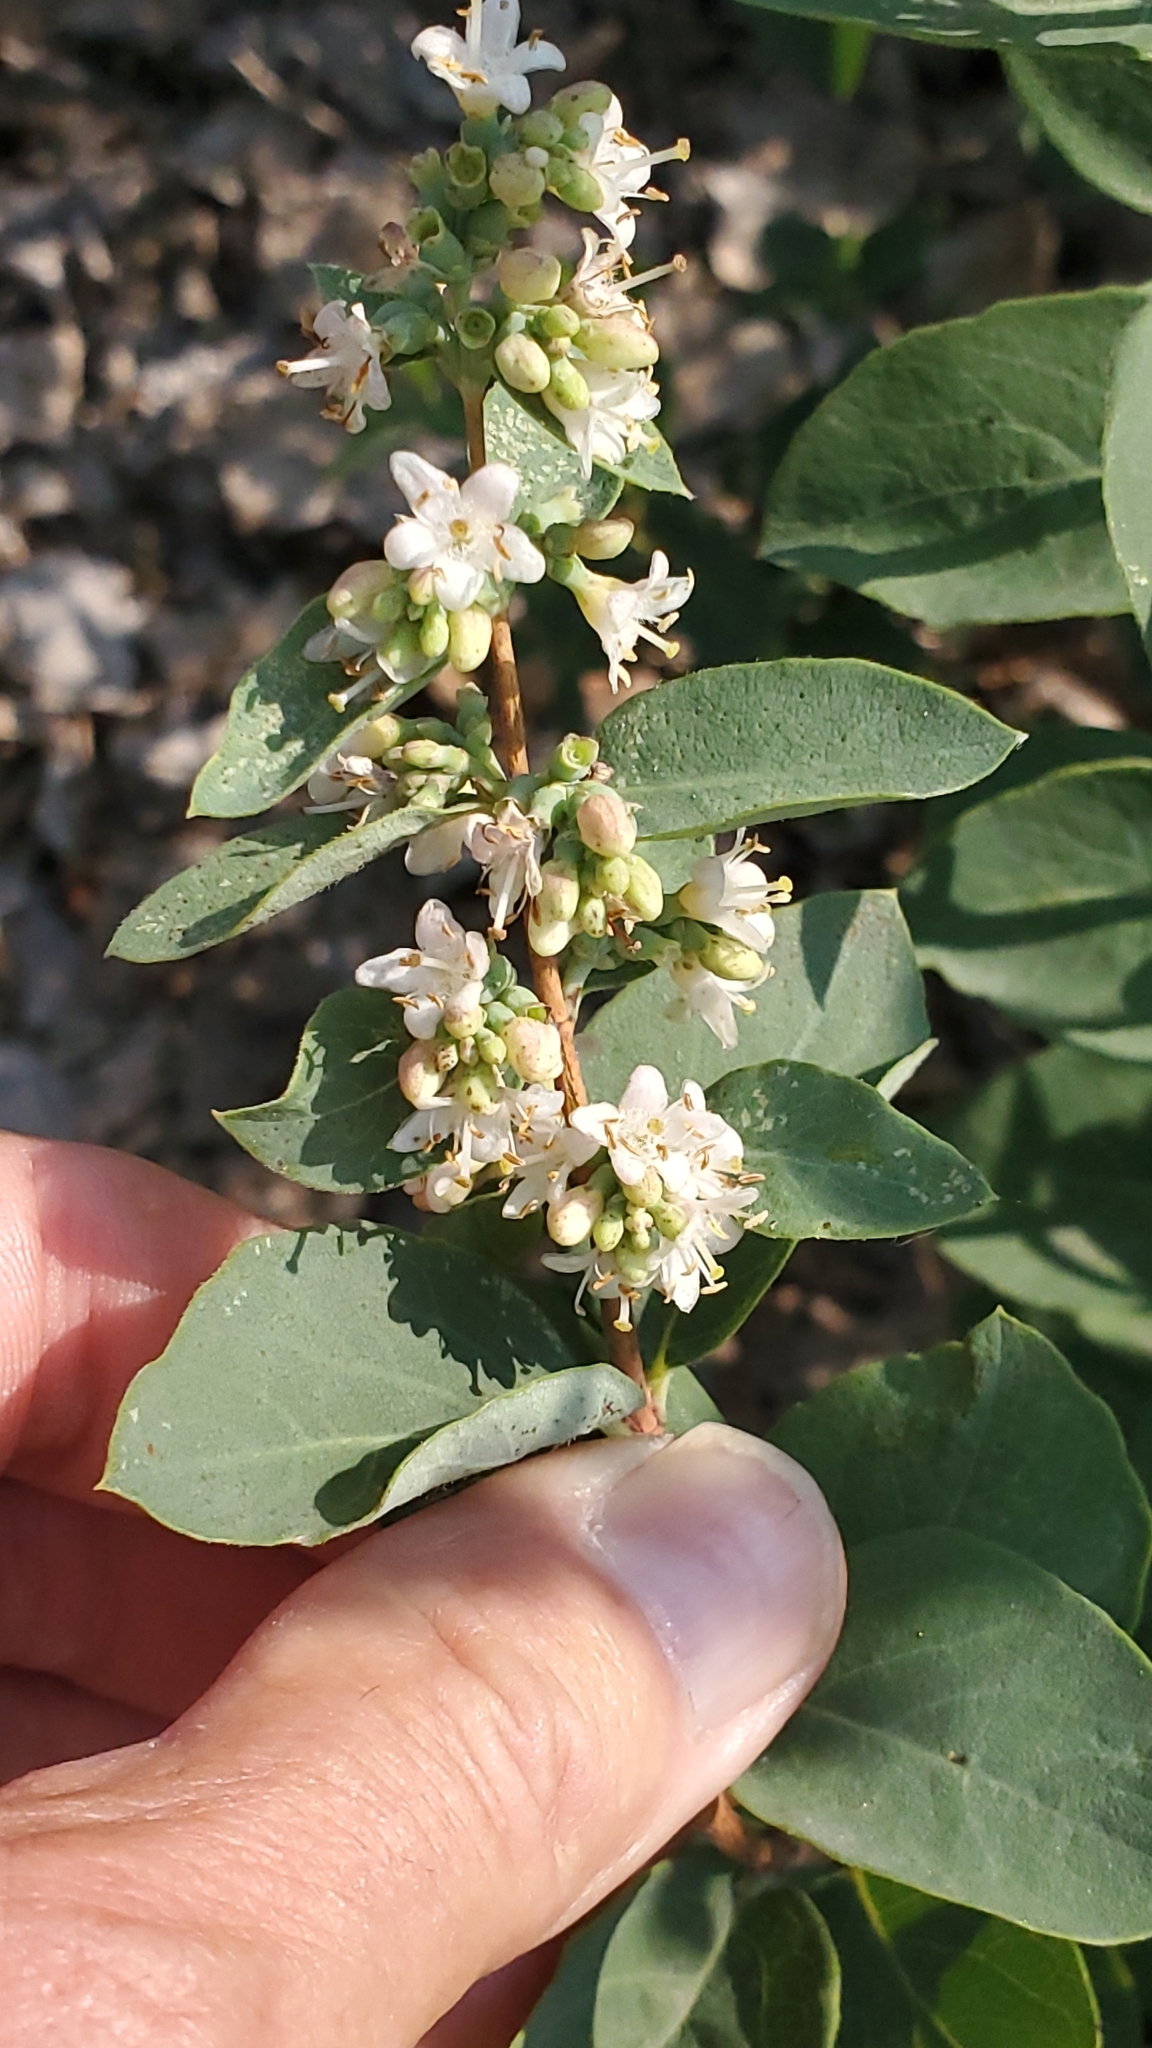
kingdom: Plantae
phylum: Tracheophyta
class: Magnoliopsida
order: Dipsacales
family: Caprifoliaceae
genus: Symphoricarpos
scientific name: Symphoricarpos occidentalis
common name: Wolfberry
